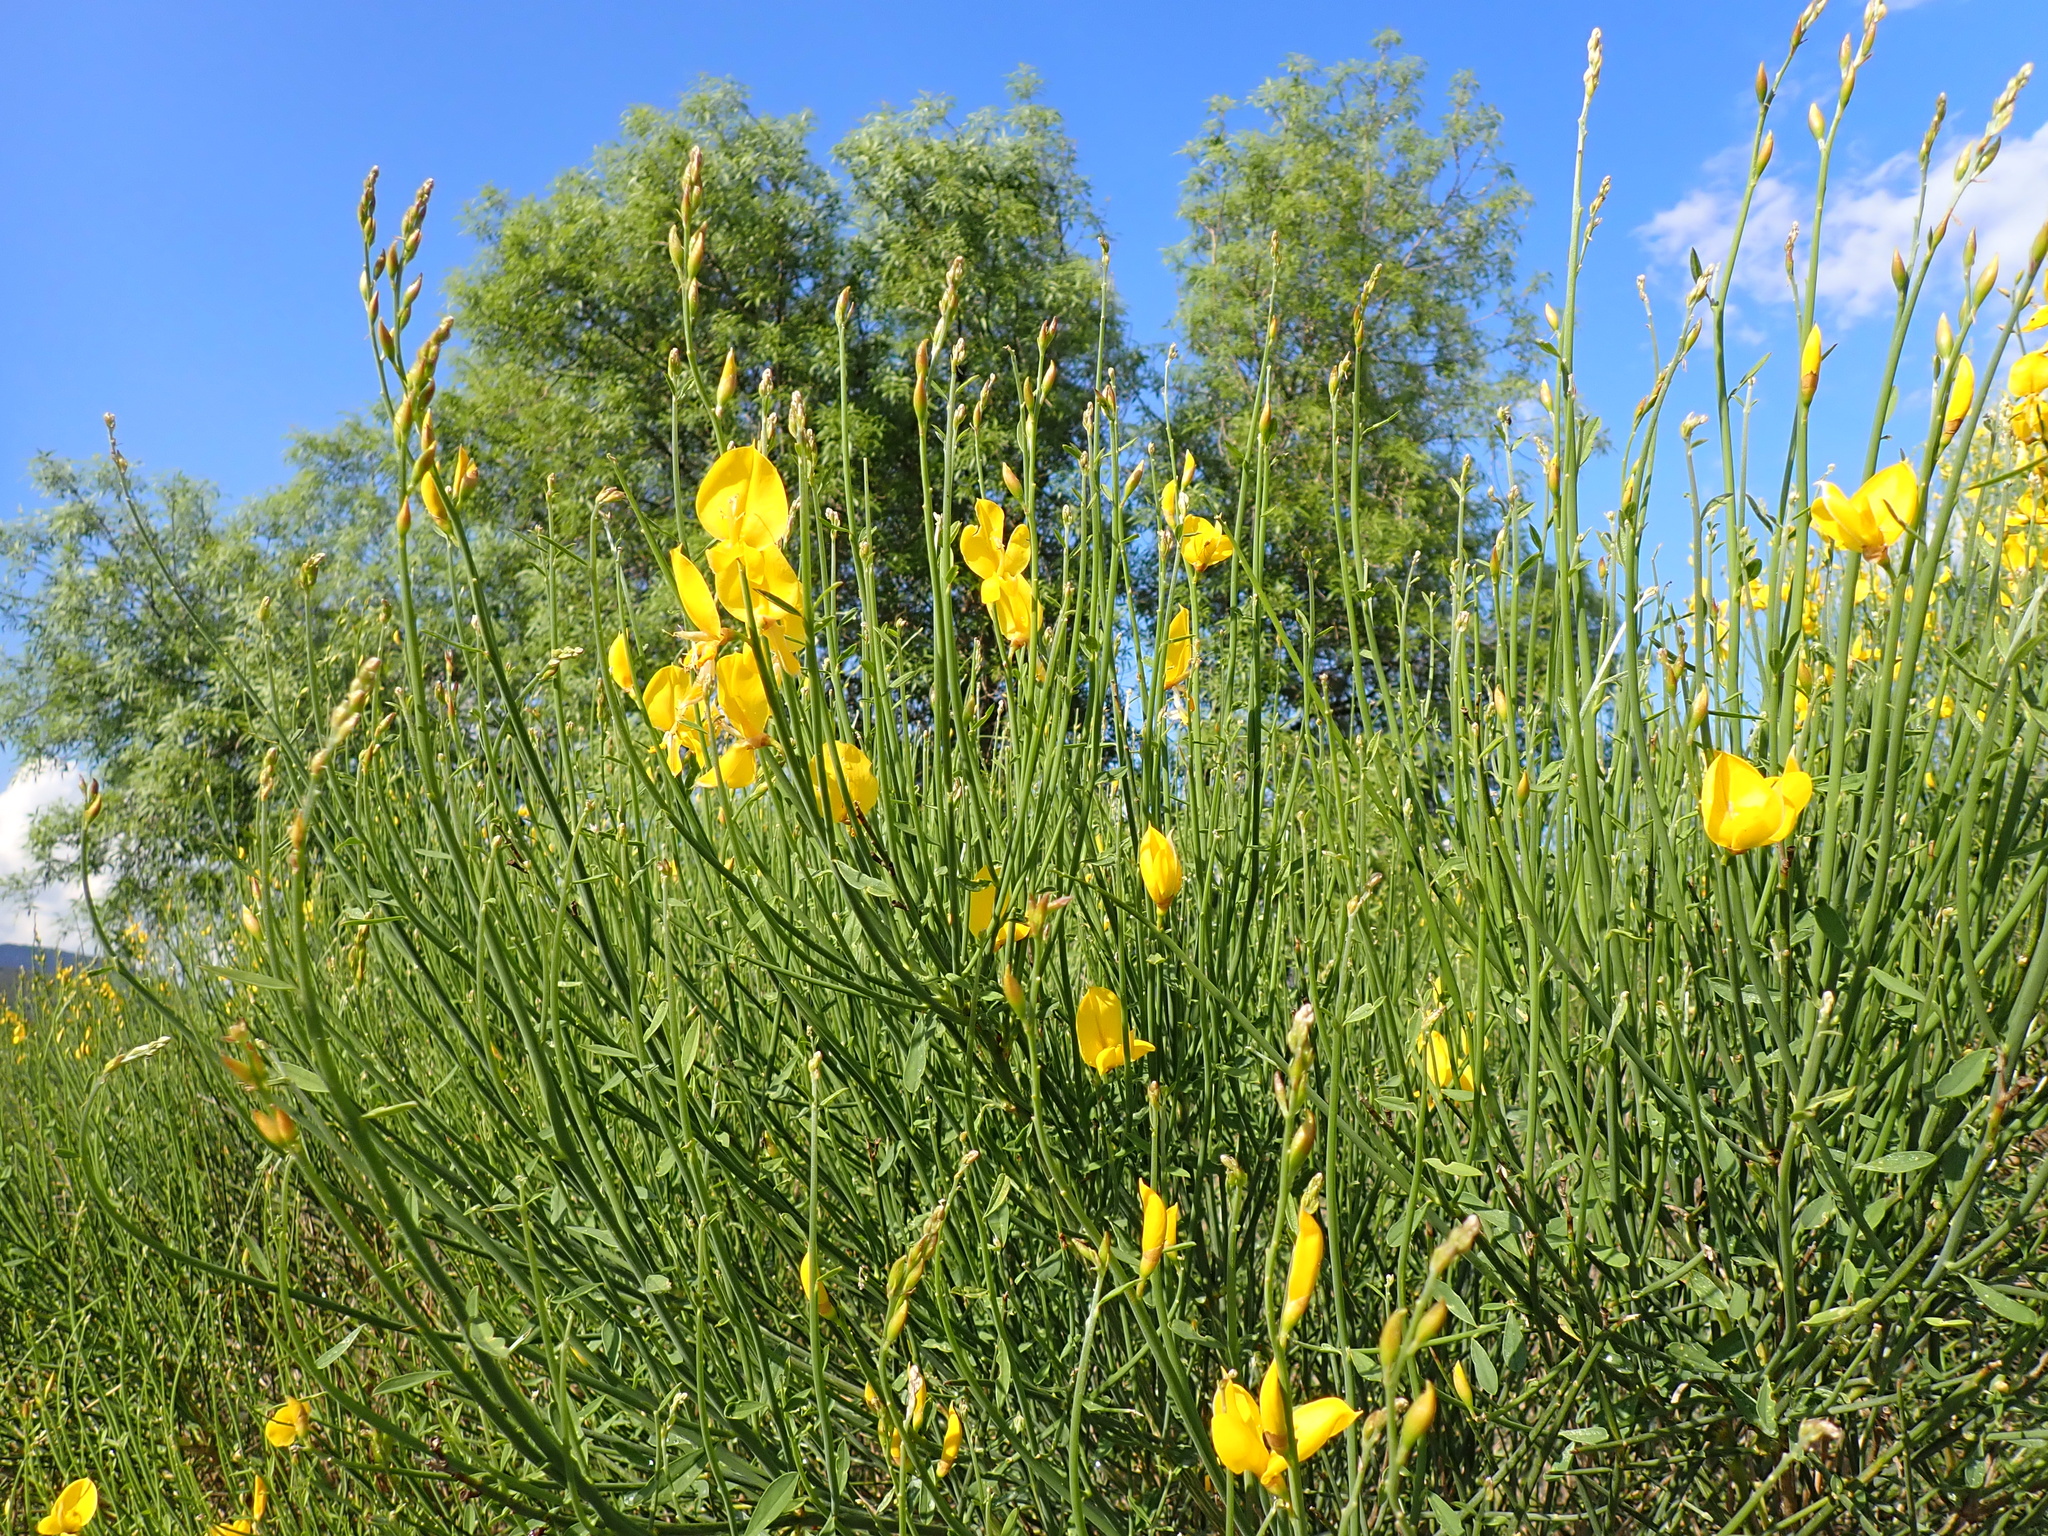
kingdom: Plantae
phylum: Tracheophyta
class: Magnoliopsida
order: Fabales
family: Fabaceae
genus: Spartium
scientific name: Spartium junceum
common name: Spanish broom
